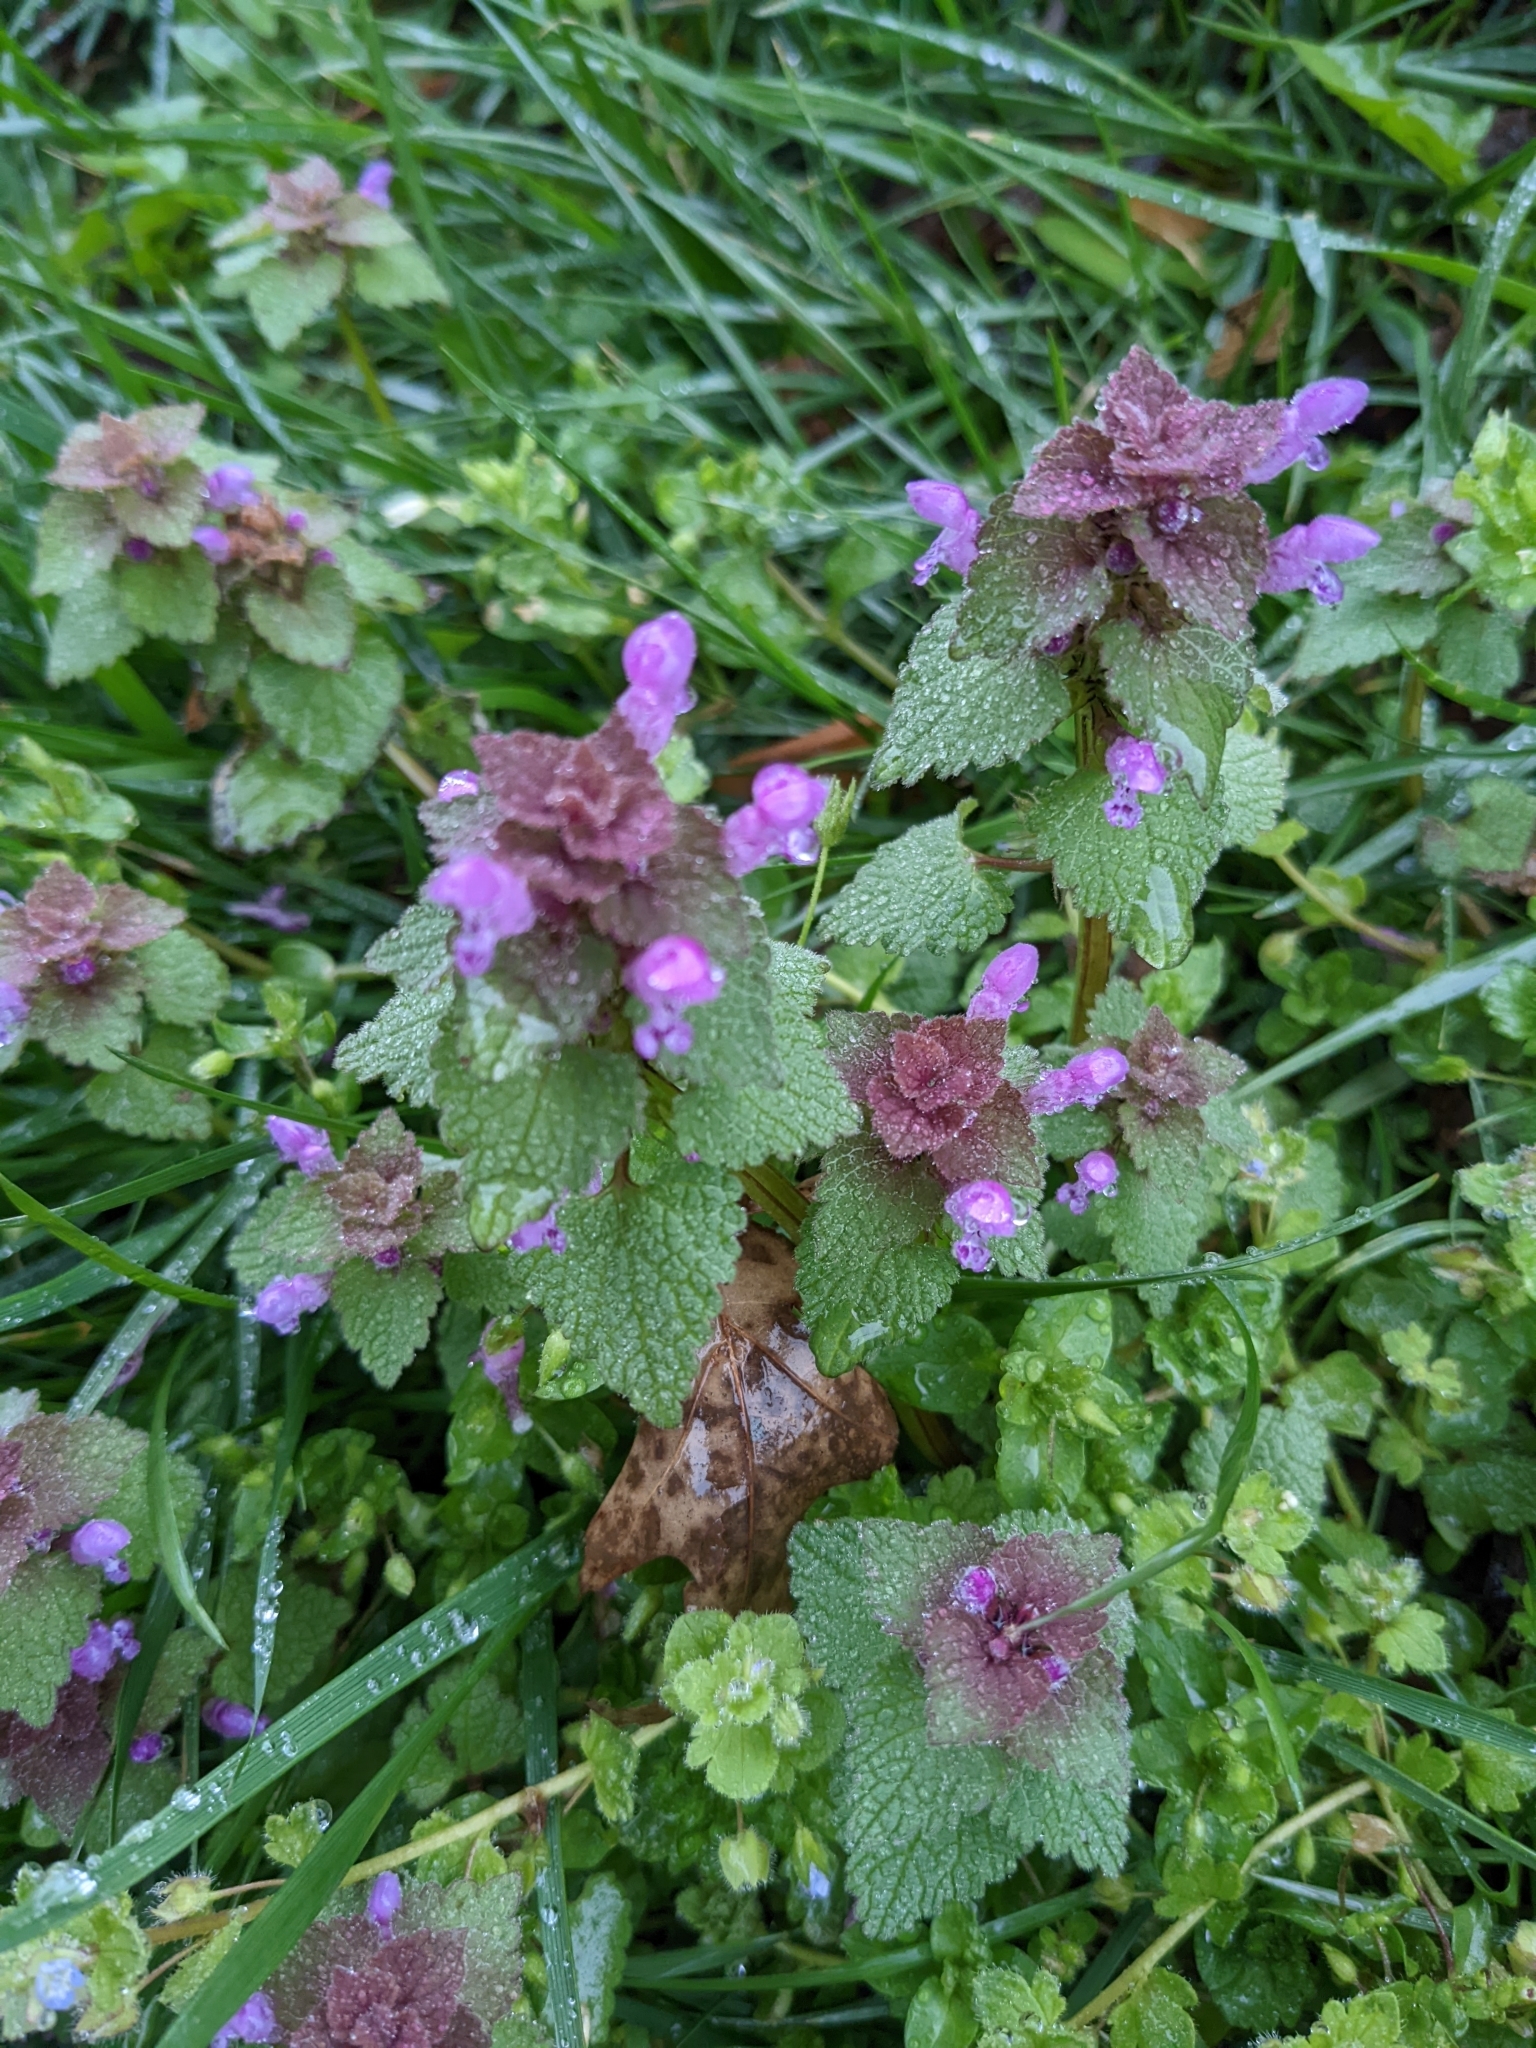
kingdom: Plantae
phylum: Tracheophyta
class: Magnoliopsida
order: Lamiales
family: Lamiaceae
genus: Lamium
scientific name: Lamium purpureum
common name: Red dead-nettle
